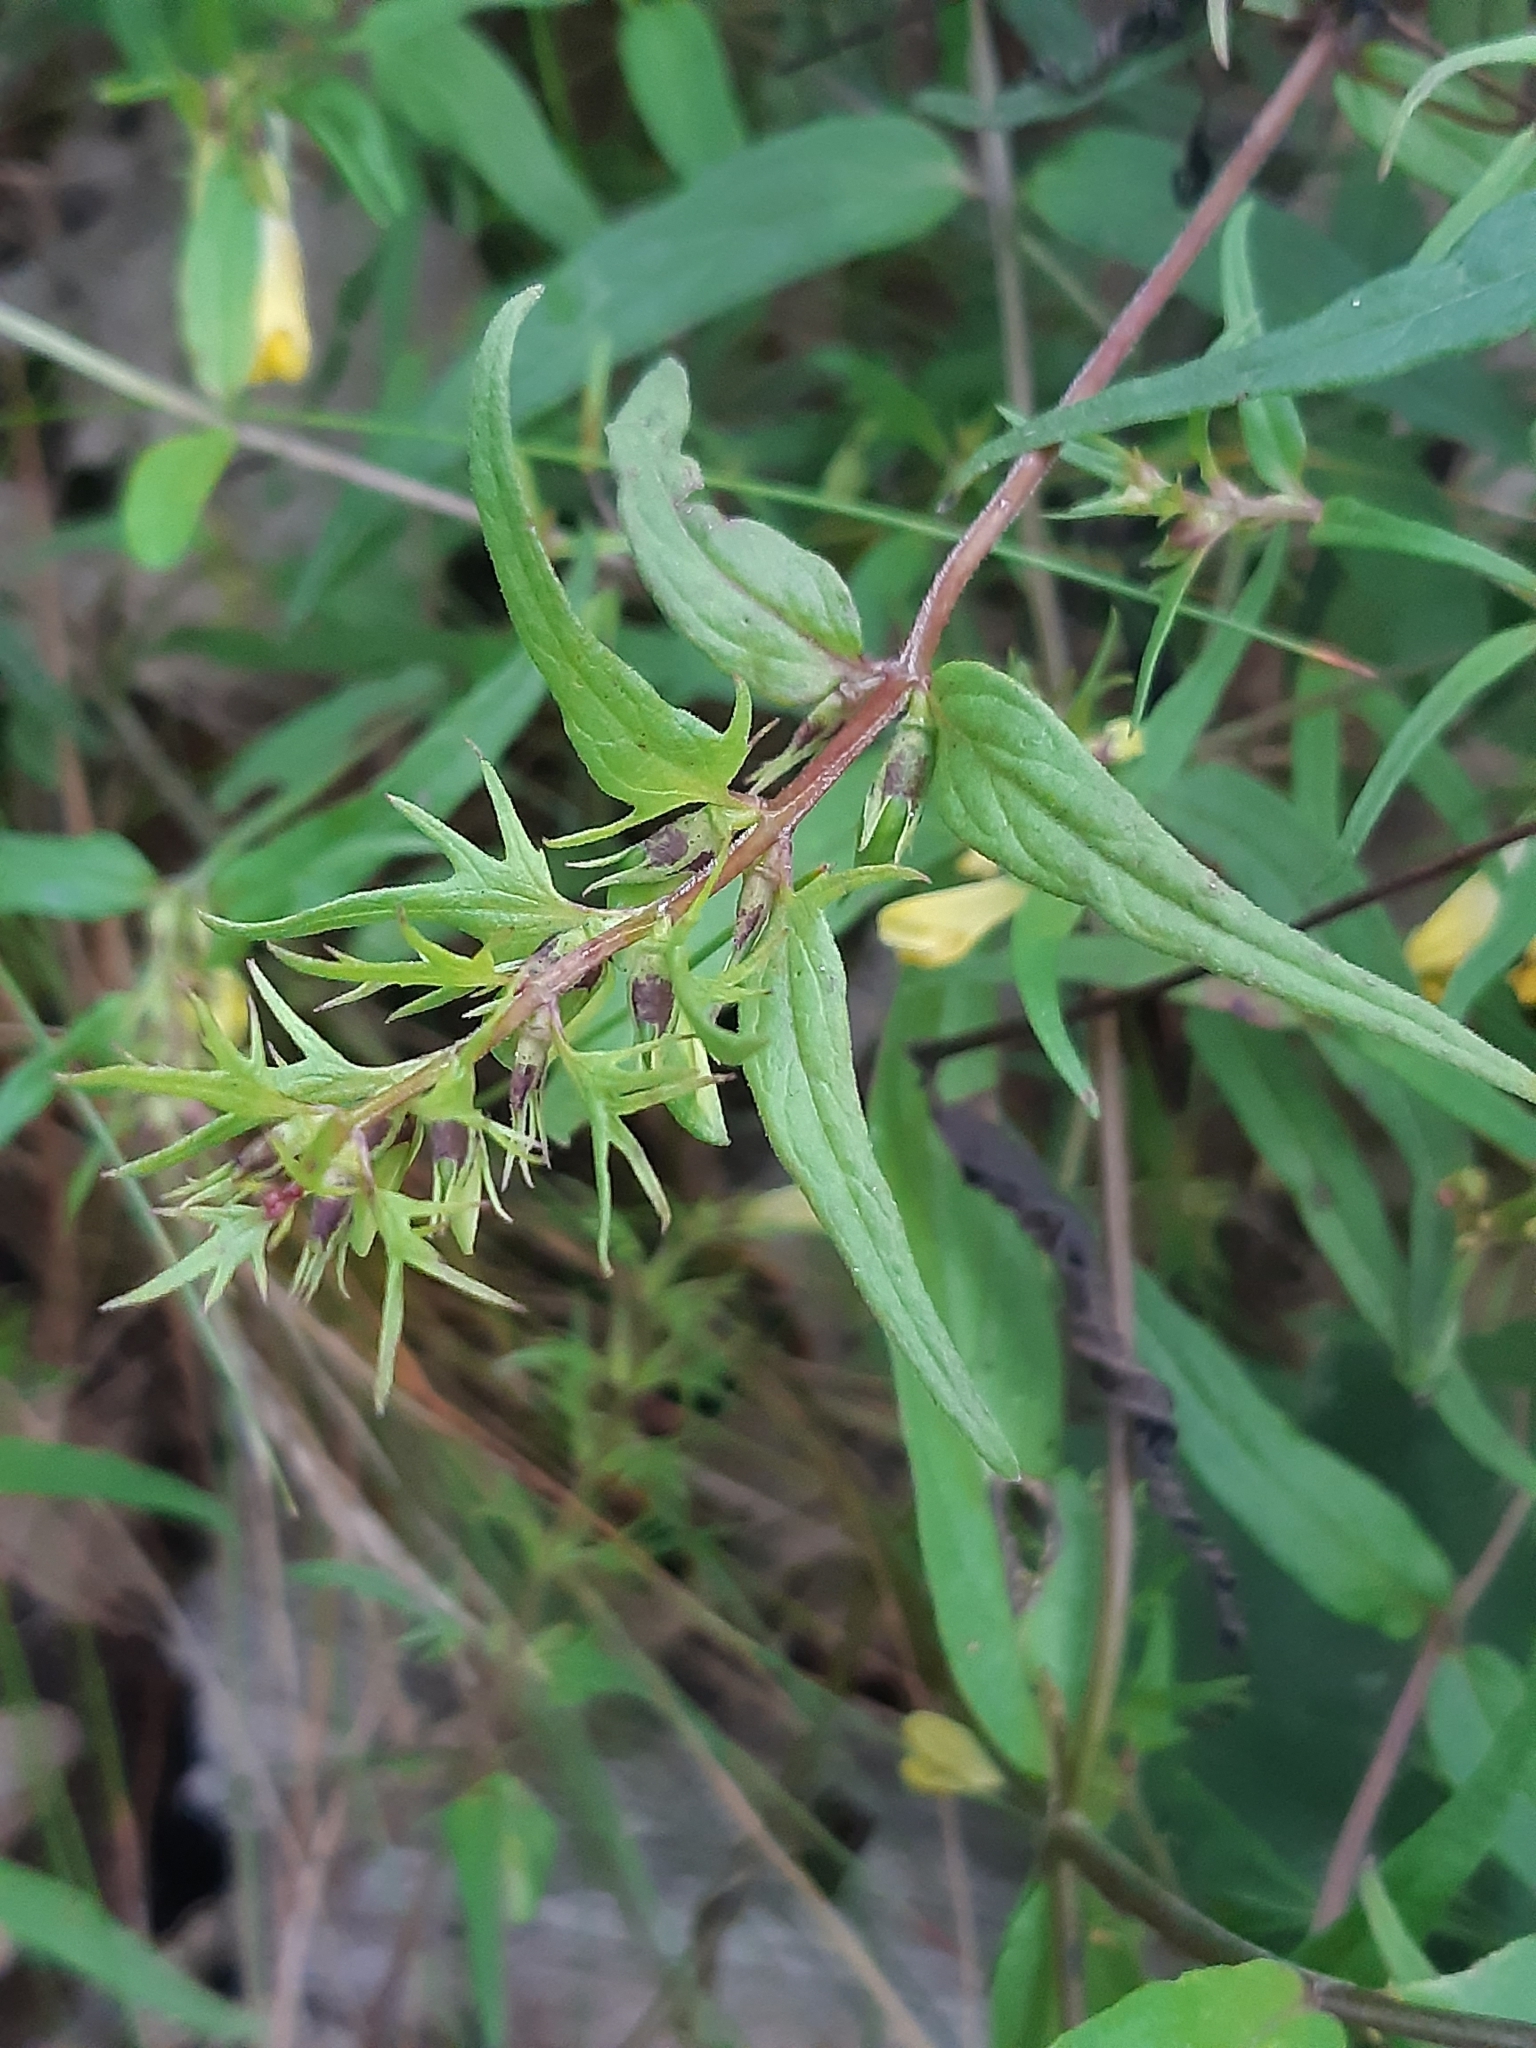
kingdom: Plantae
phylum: Tracheophyta
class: Magnoliopsida
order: Lamiales
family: Orobanchaceae
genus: Melampyrum
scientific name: Melampyrum pratense
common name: Common cow-wheat
